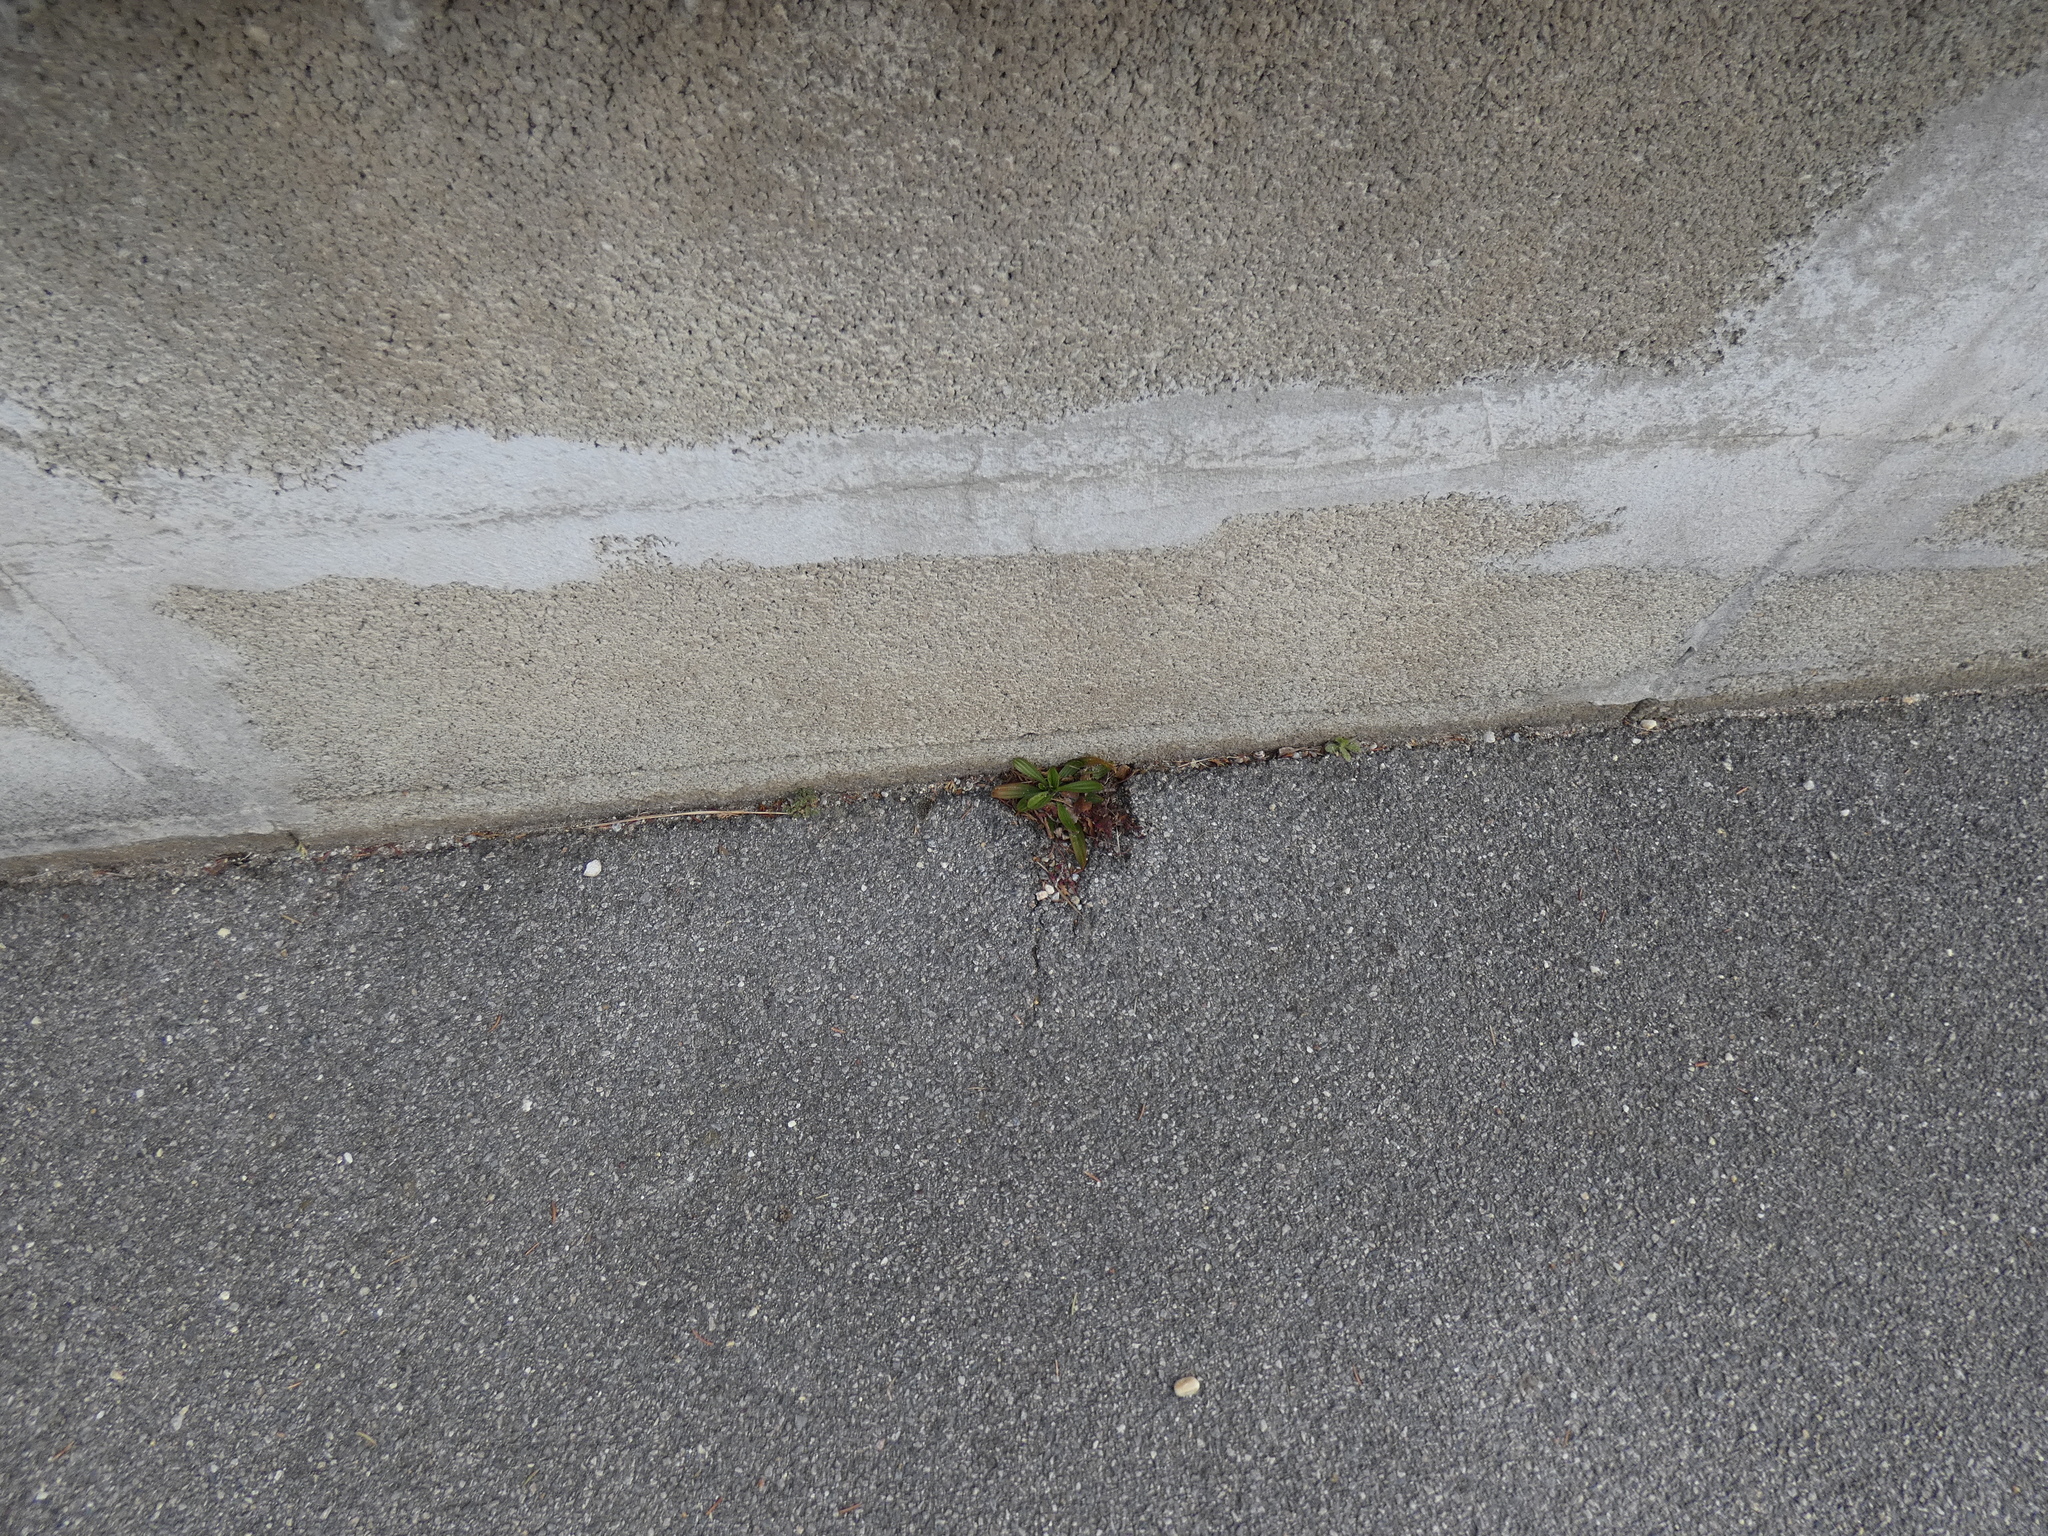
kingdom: Plantae
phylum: Tracheophyta
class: Magnoliopsida
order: Lamiales
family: Plantaginaceae
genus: Plantago
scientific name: Plantago lanceolata
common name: Ribwort plantain
